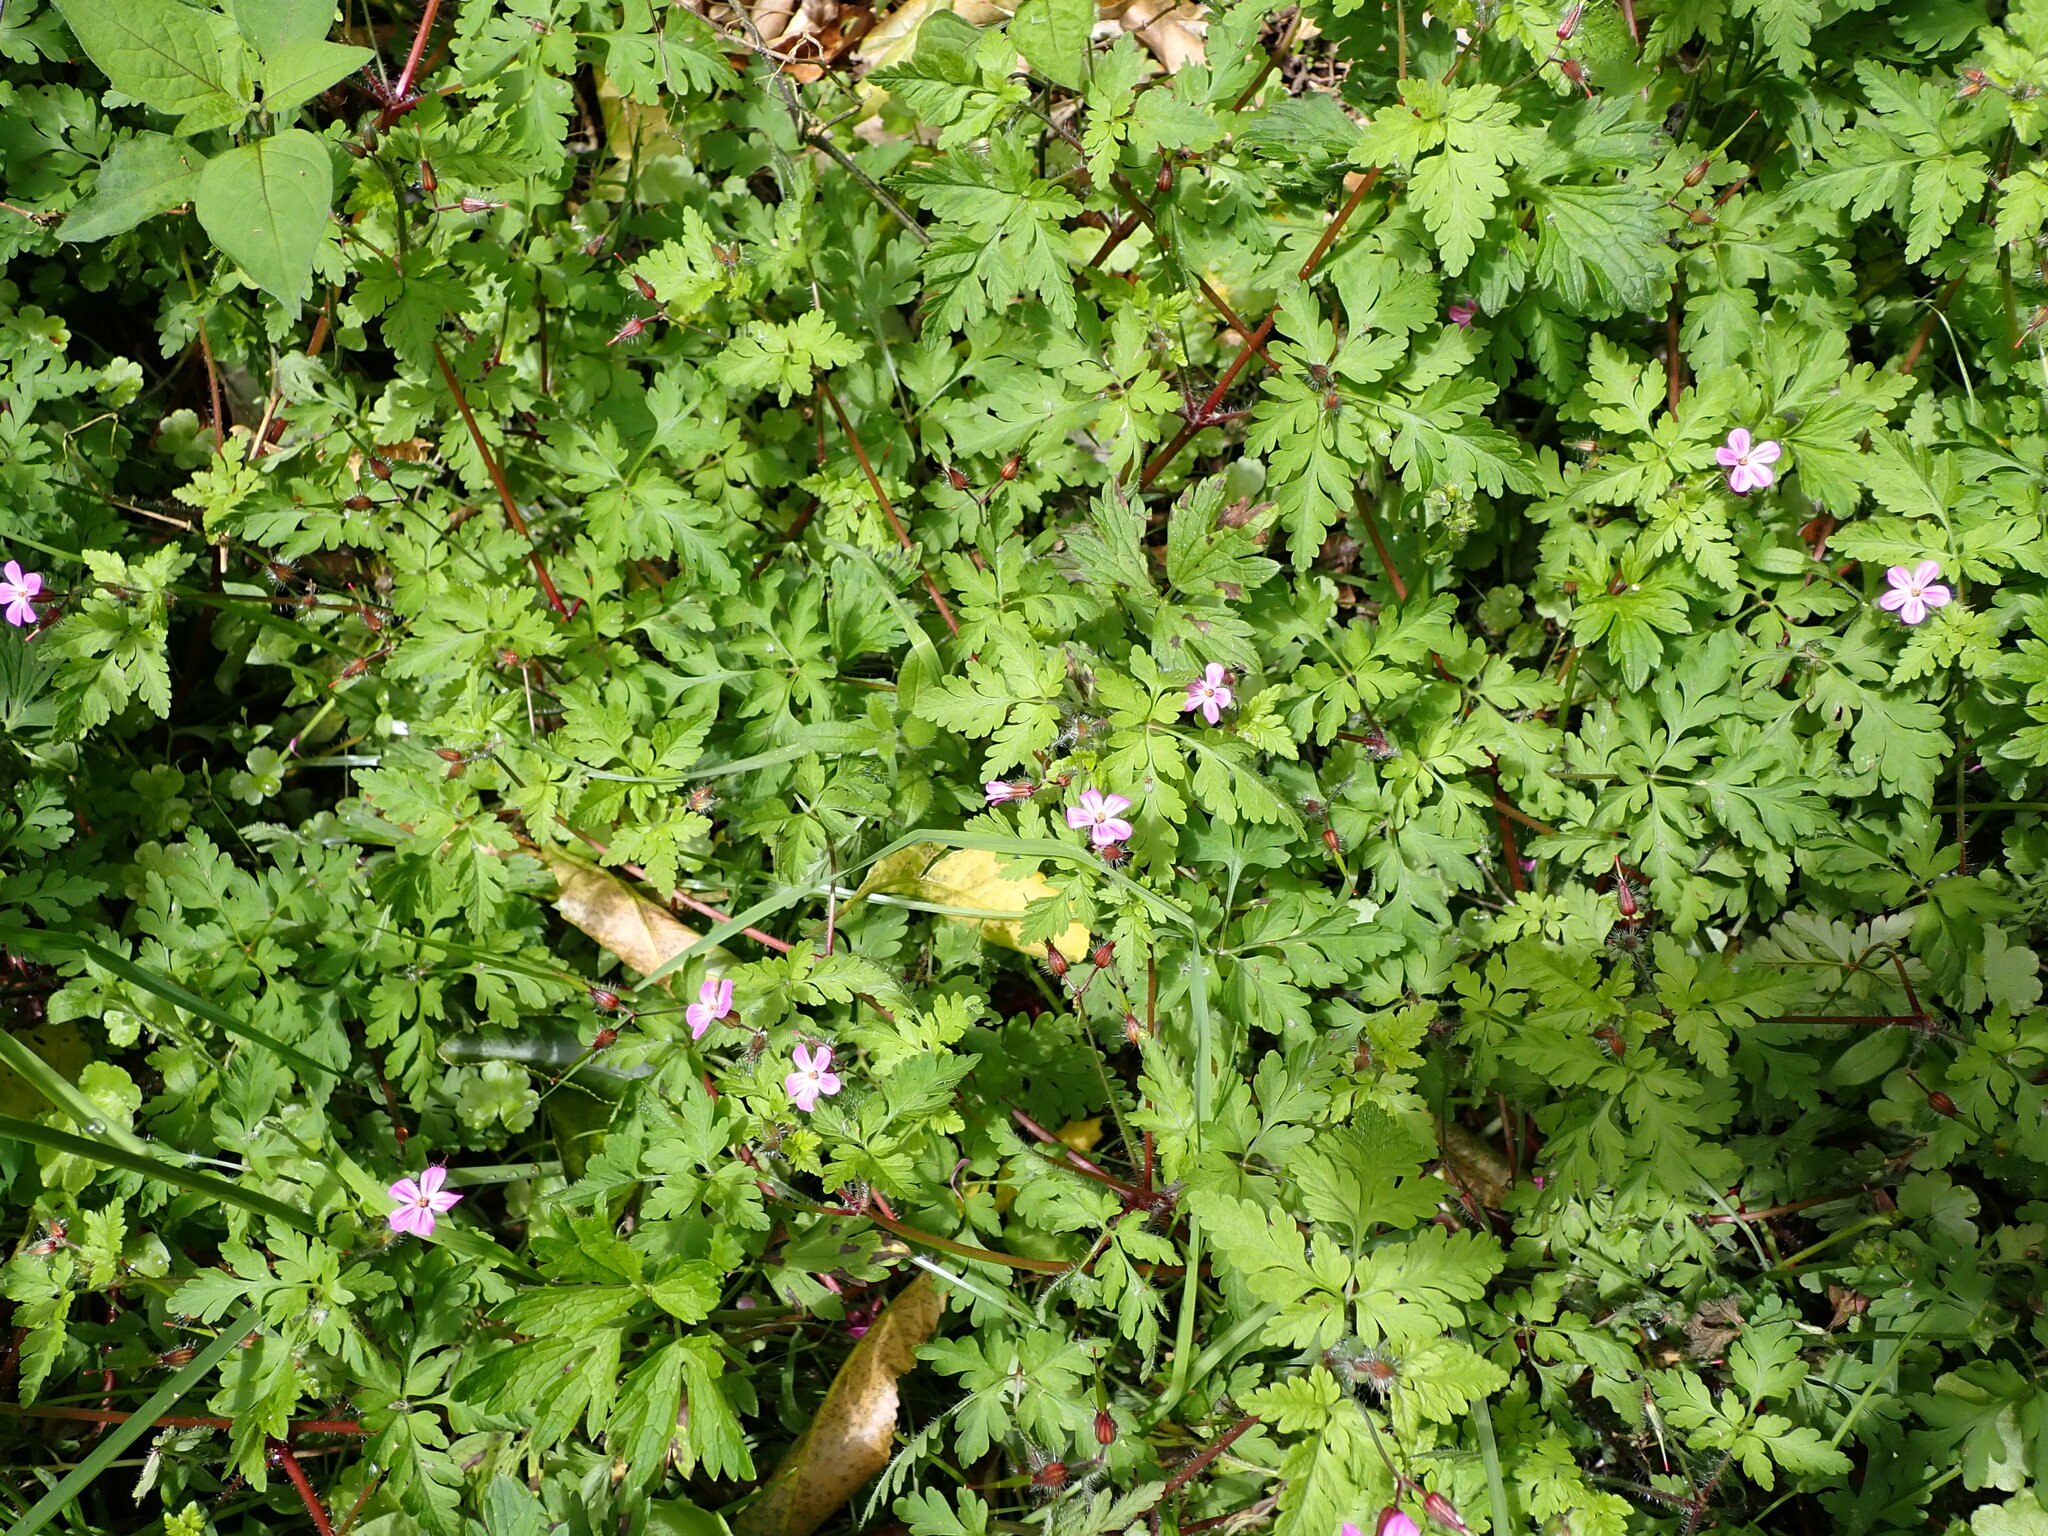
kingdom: Plantae
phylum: Tracheophyta
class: Magnoliopsida
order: Geraniales
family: Geraniaceae
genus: Geranium
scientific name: Geranium robertianum
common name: Herb-robert
